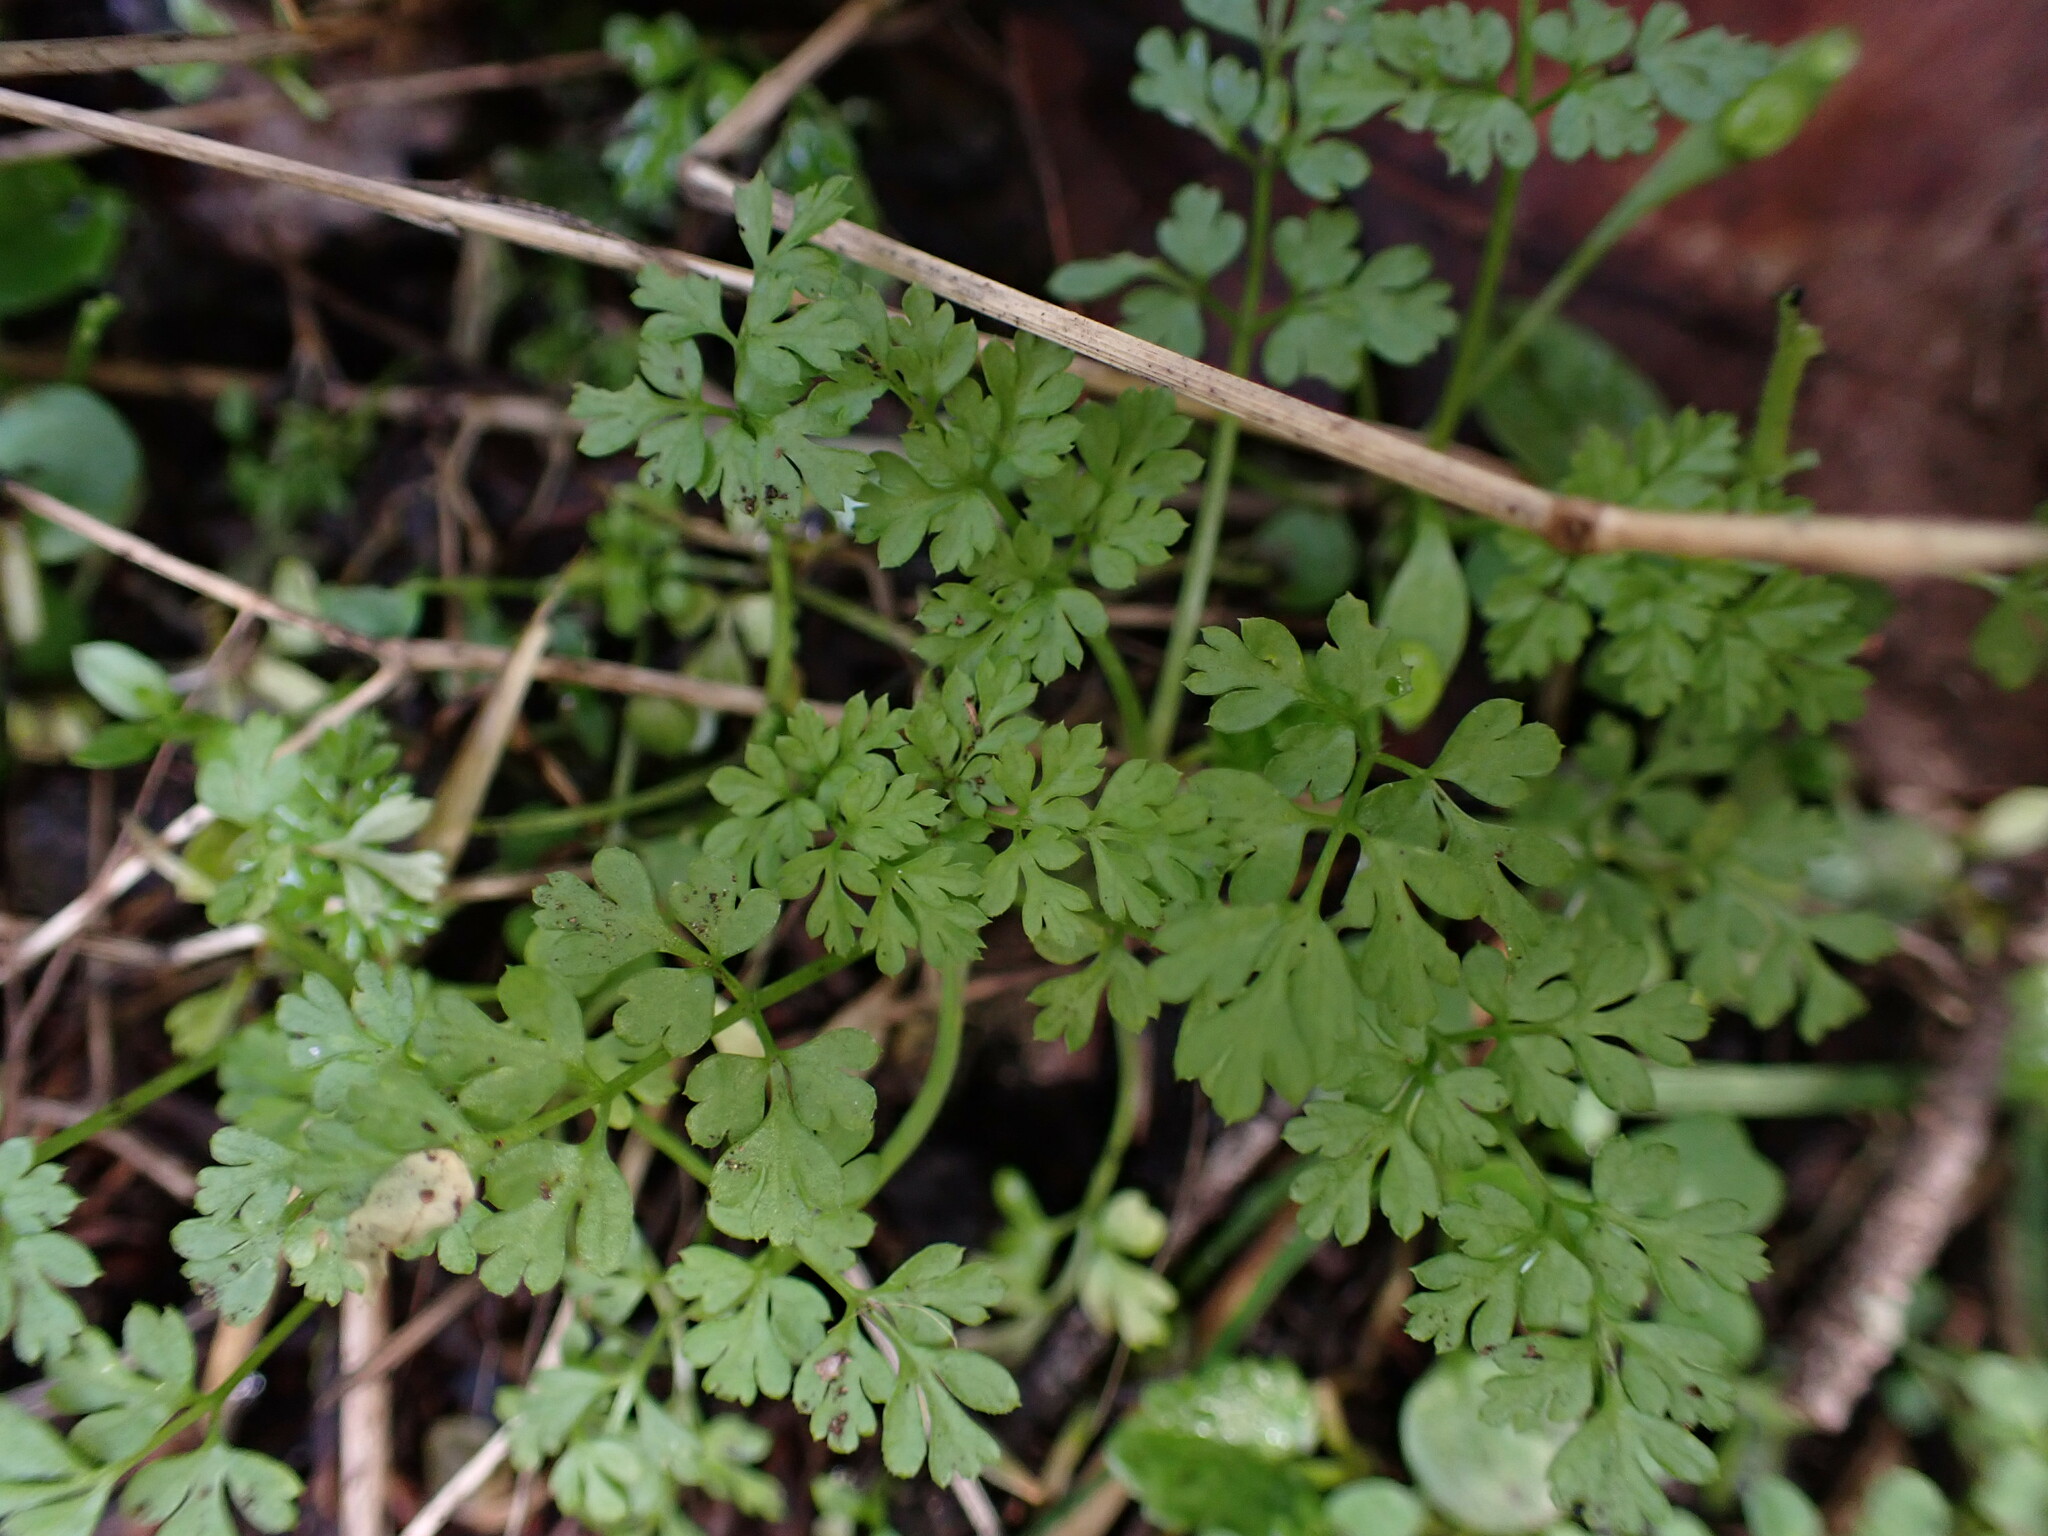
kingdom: Plantae
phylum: Tracheophyta
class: Magnoliopsida
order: Apiales
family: Apiaceae
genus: Anthriscus
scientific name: Anthriscus caucalis
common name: Bur chervil
